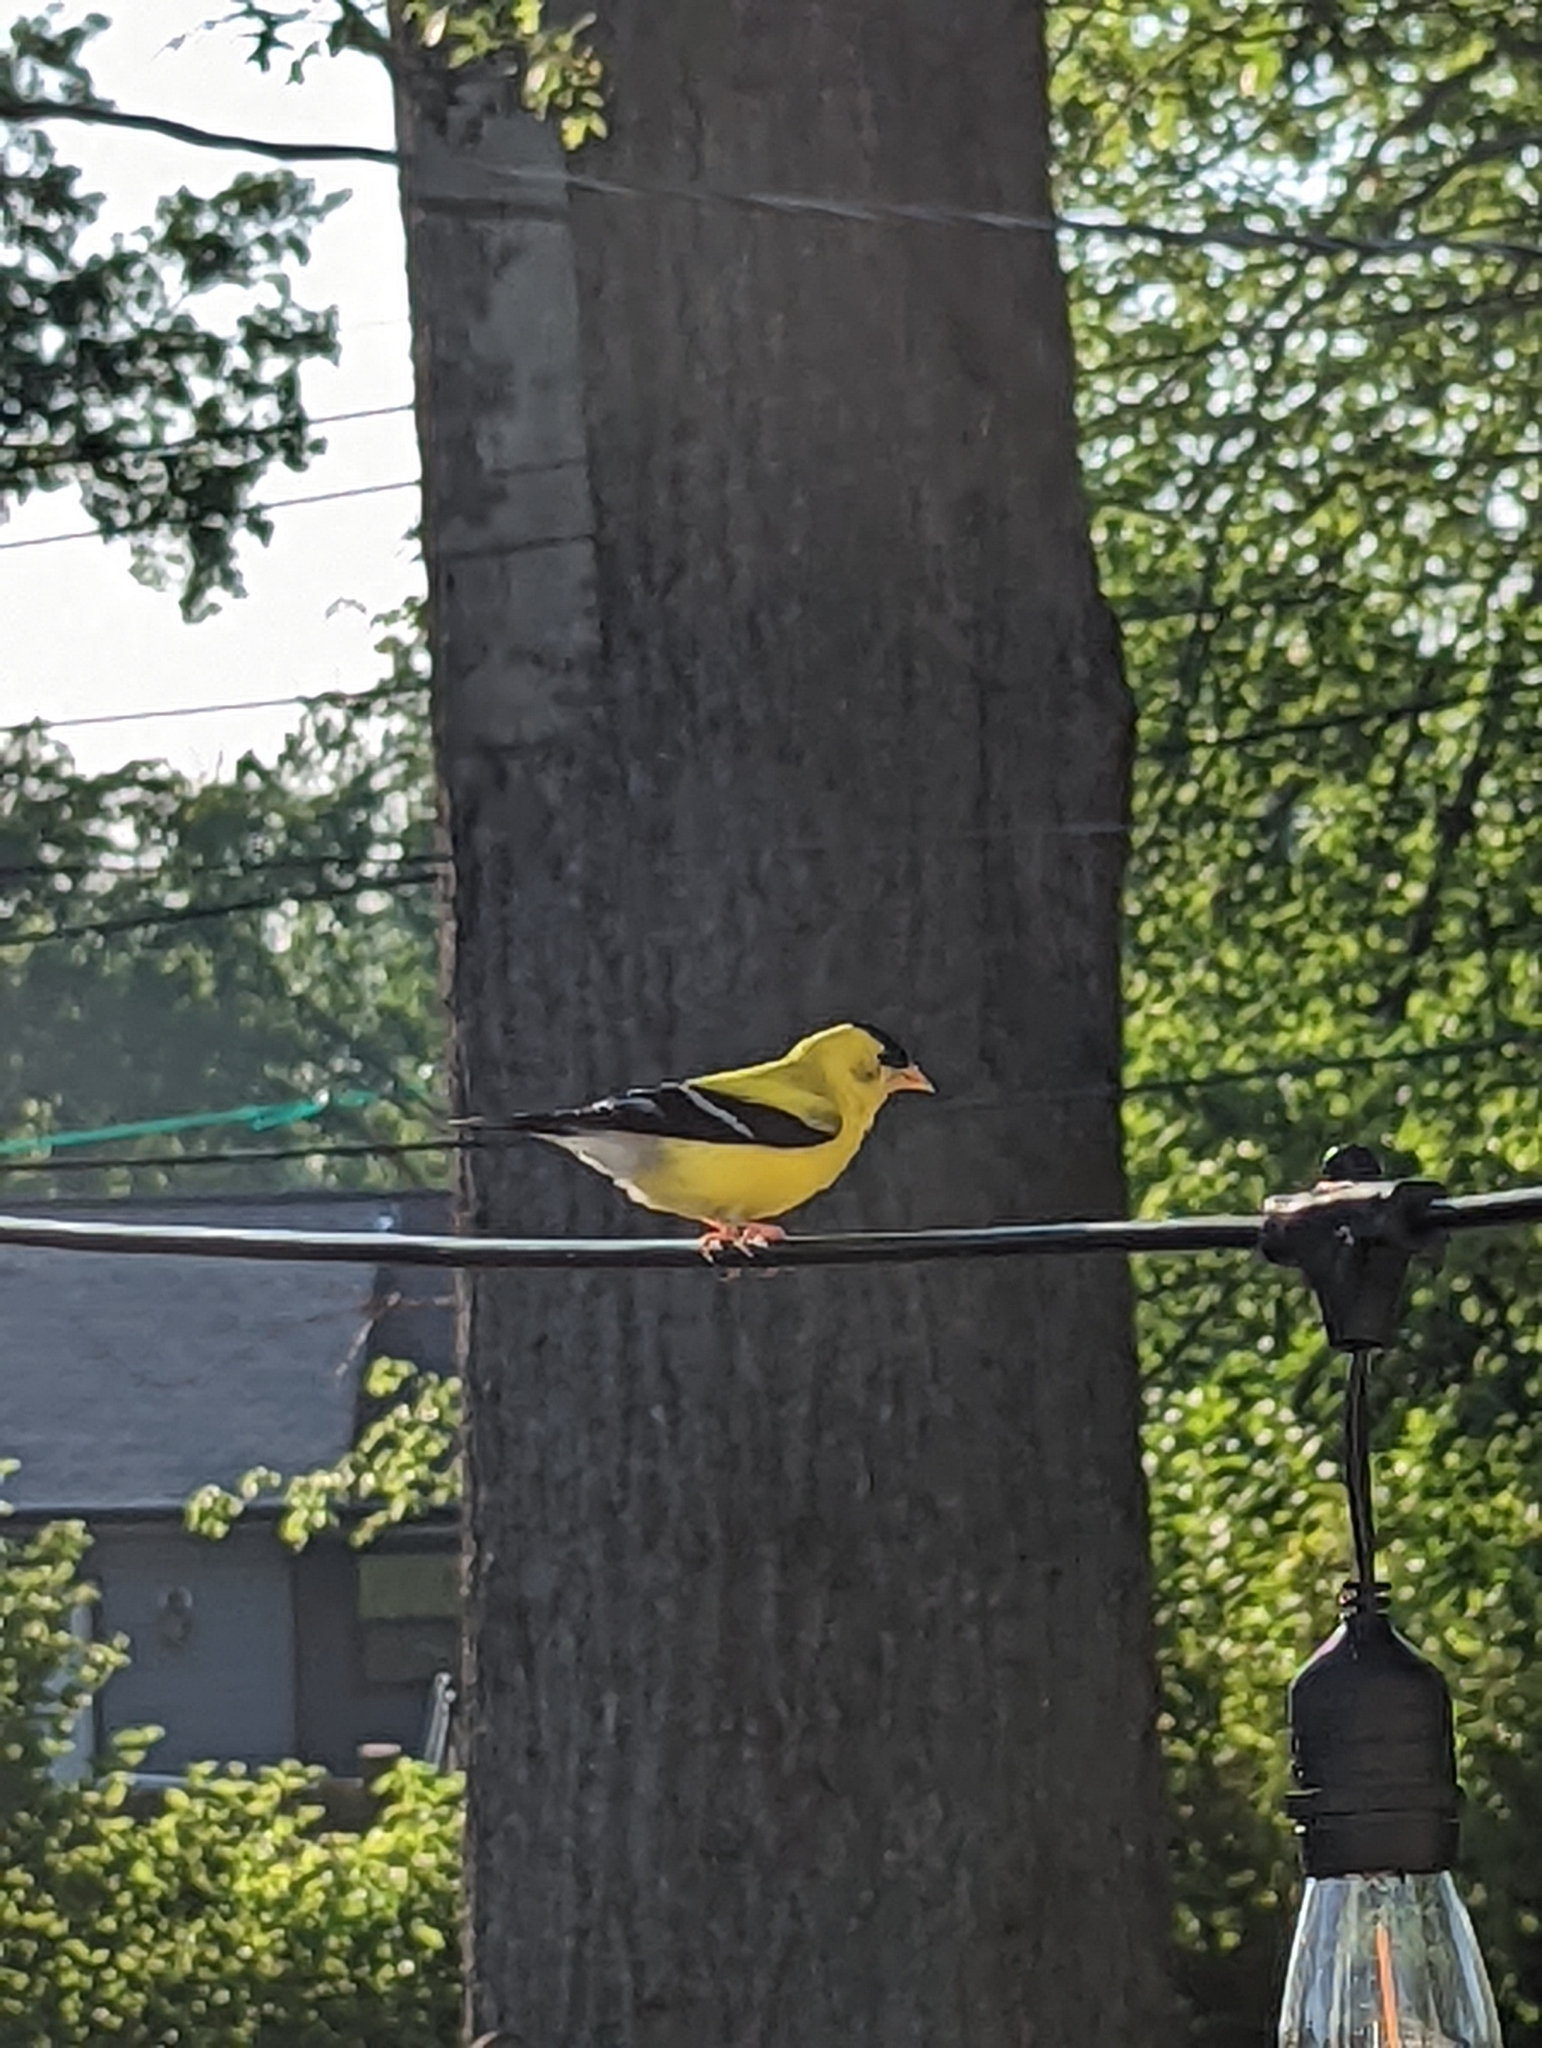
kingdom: Animalia
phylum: Chordata
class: Aves
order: Passeriformes
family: Fringillidae
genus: Spinus
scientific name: Spinus tristis
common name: American goldfinch
